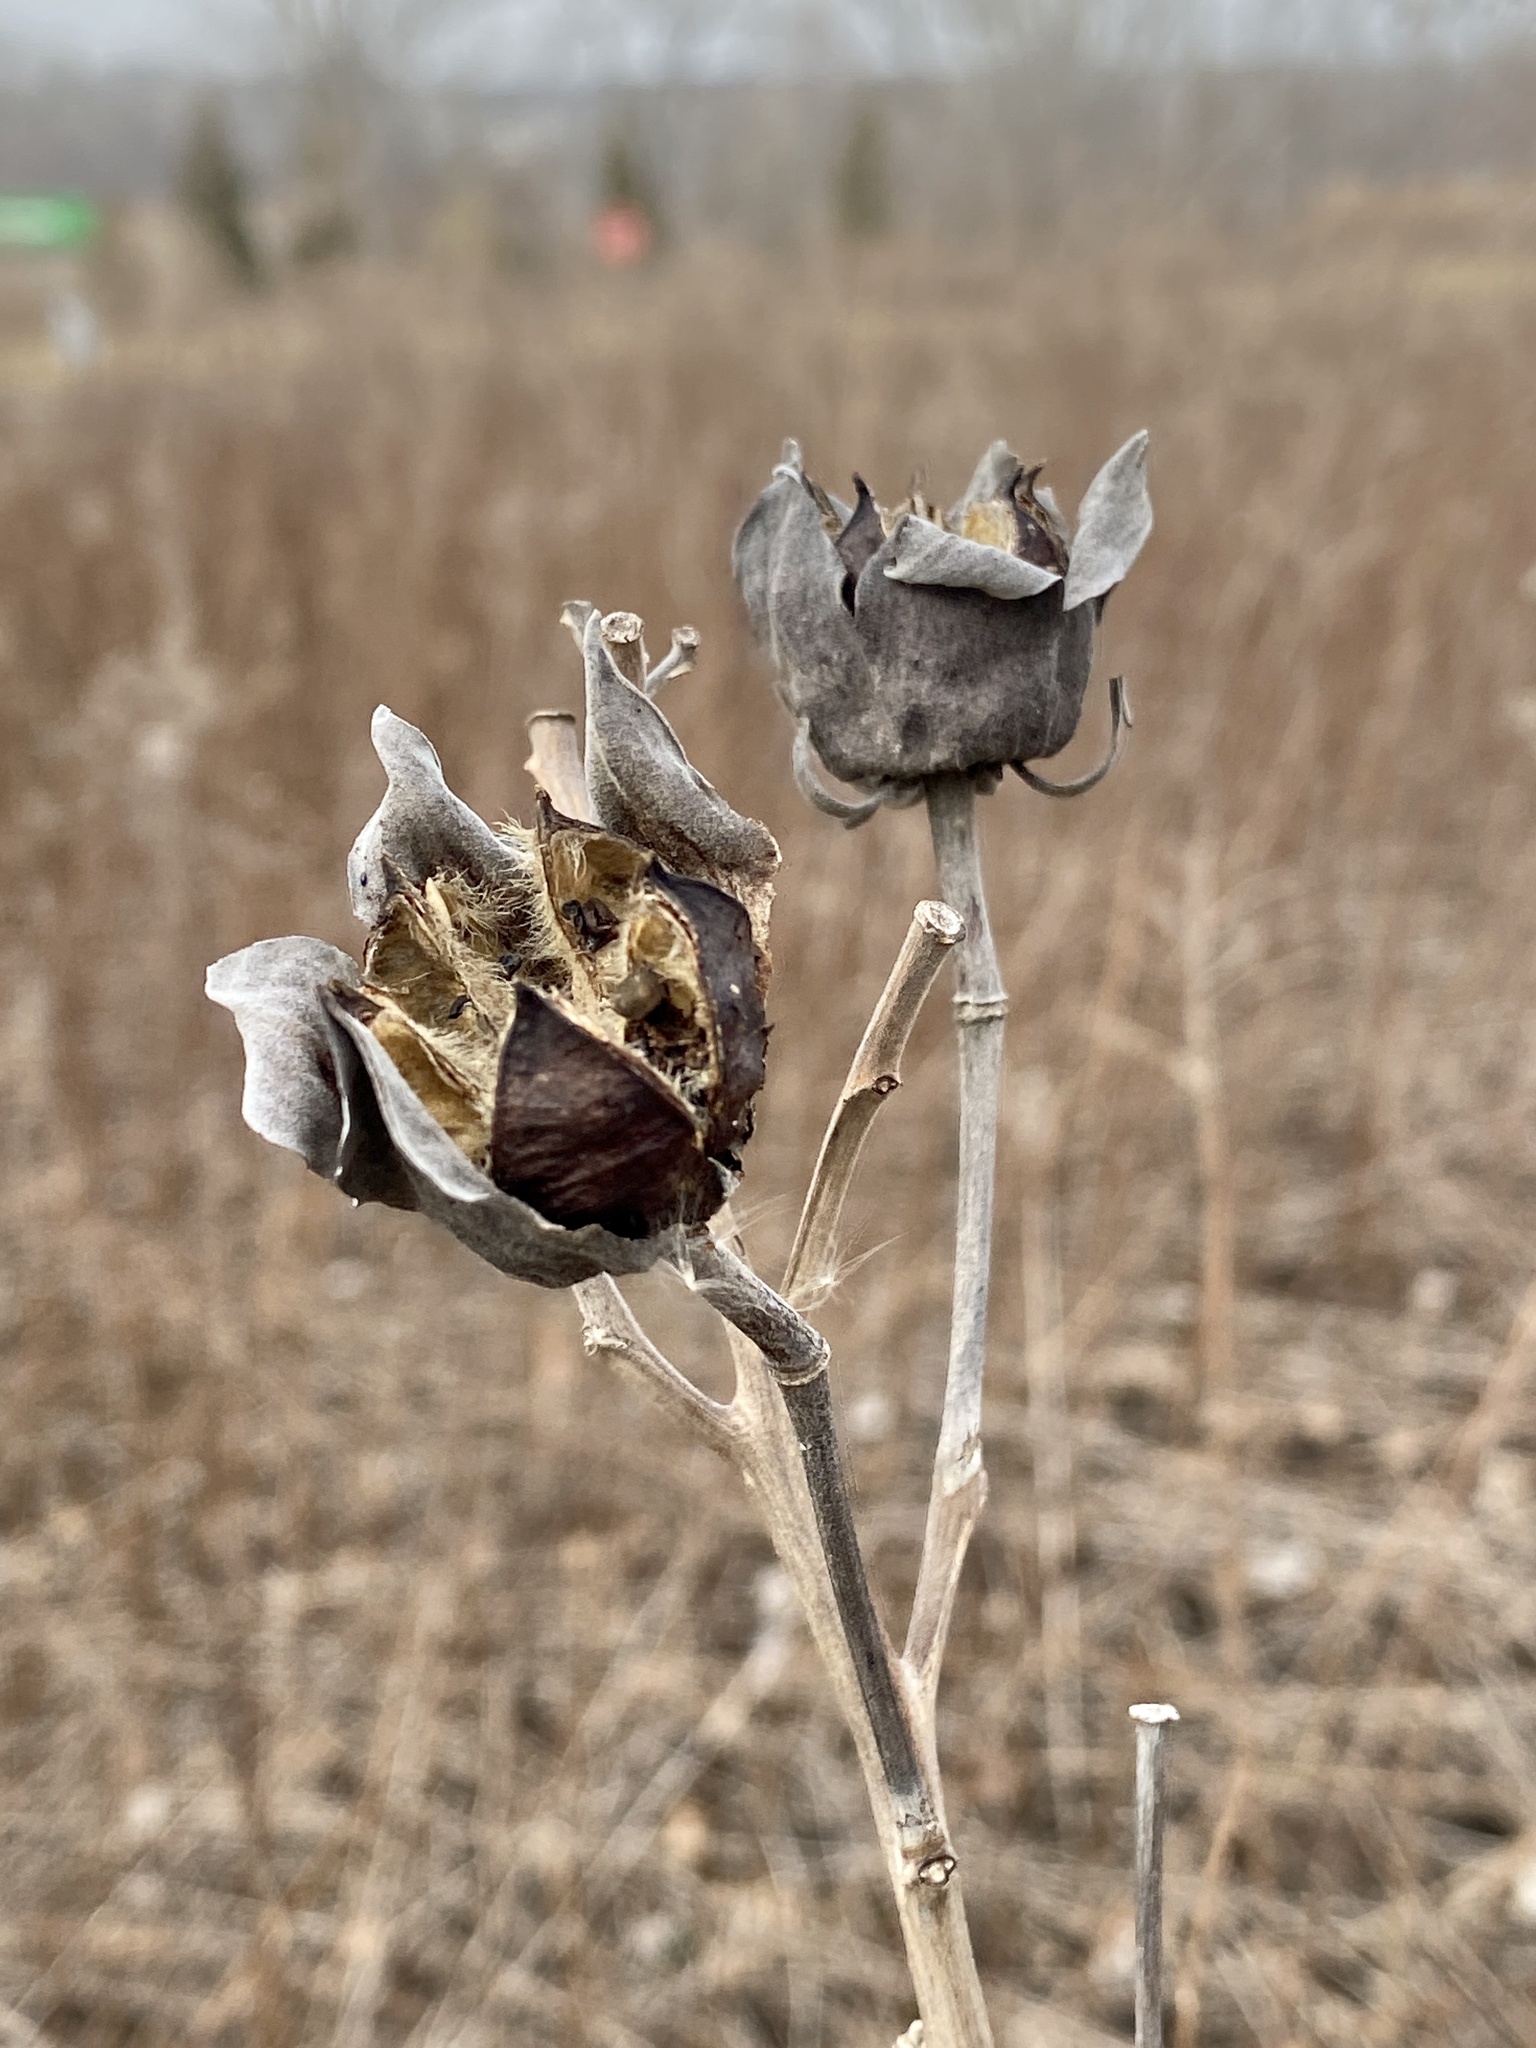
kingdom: Plantae
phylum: Tracheophyta
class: Magnoliopsida
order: Malvales
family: Malvaceae
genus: Hibiscus
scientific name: Hibiscus moscheutos
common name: Common rose-mallow
